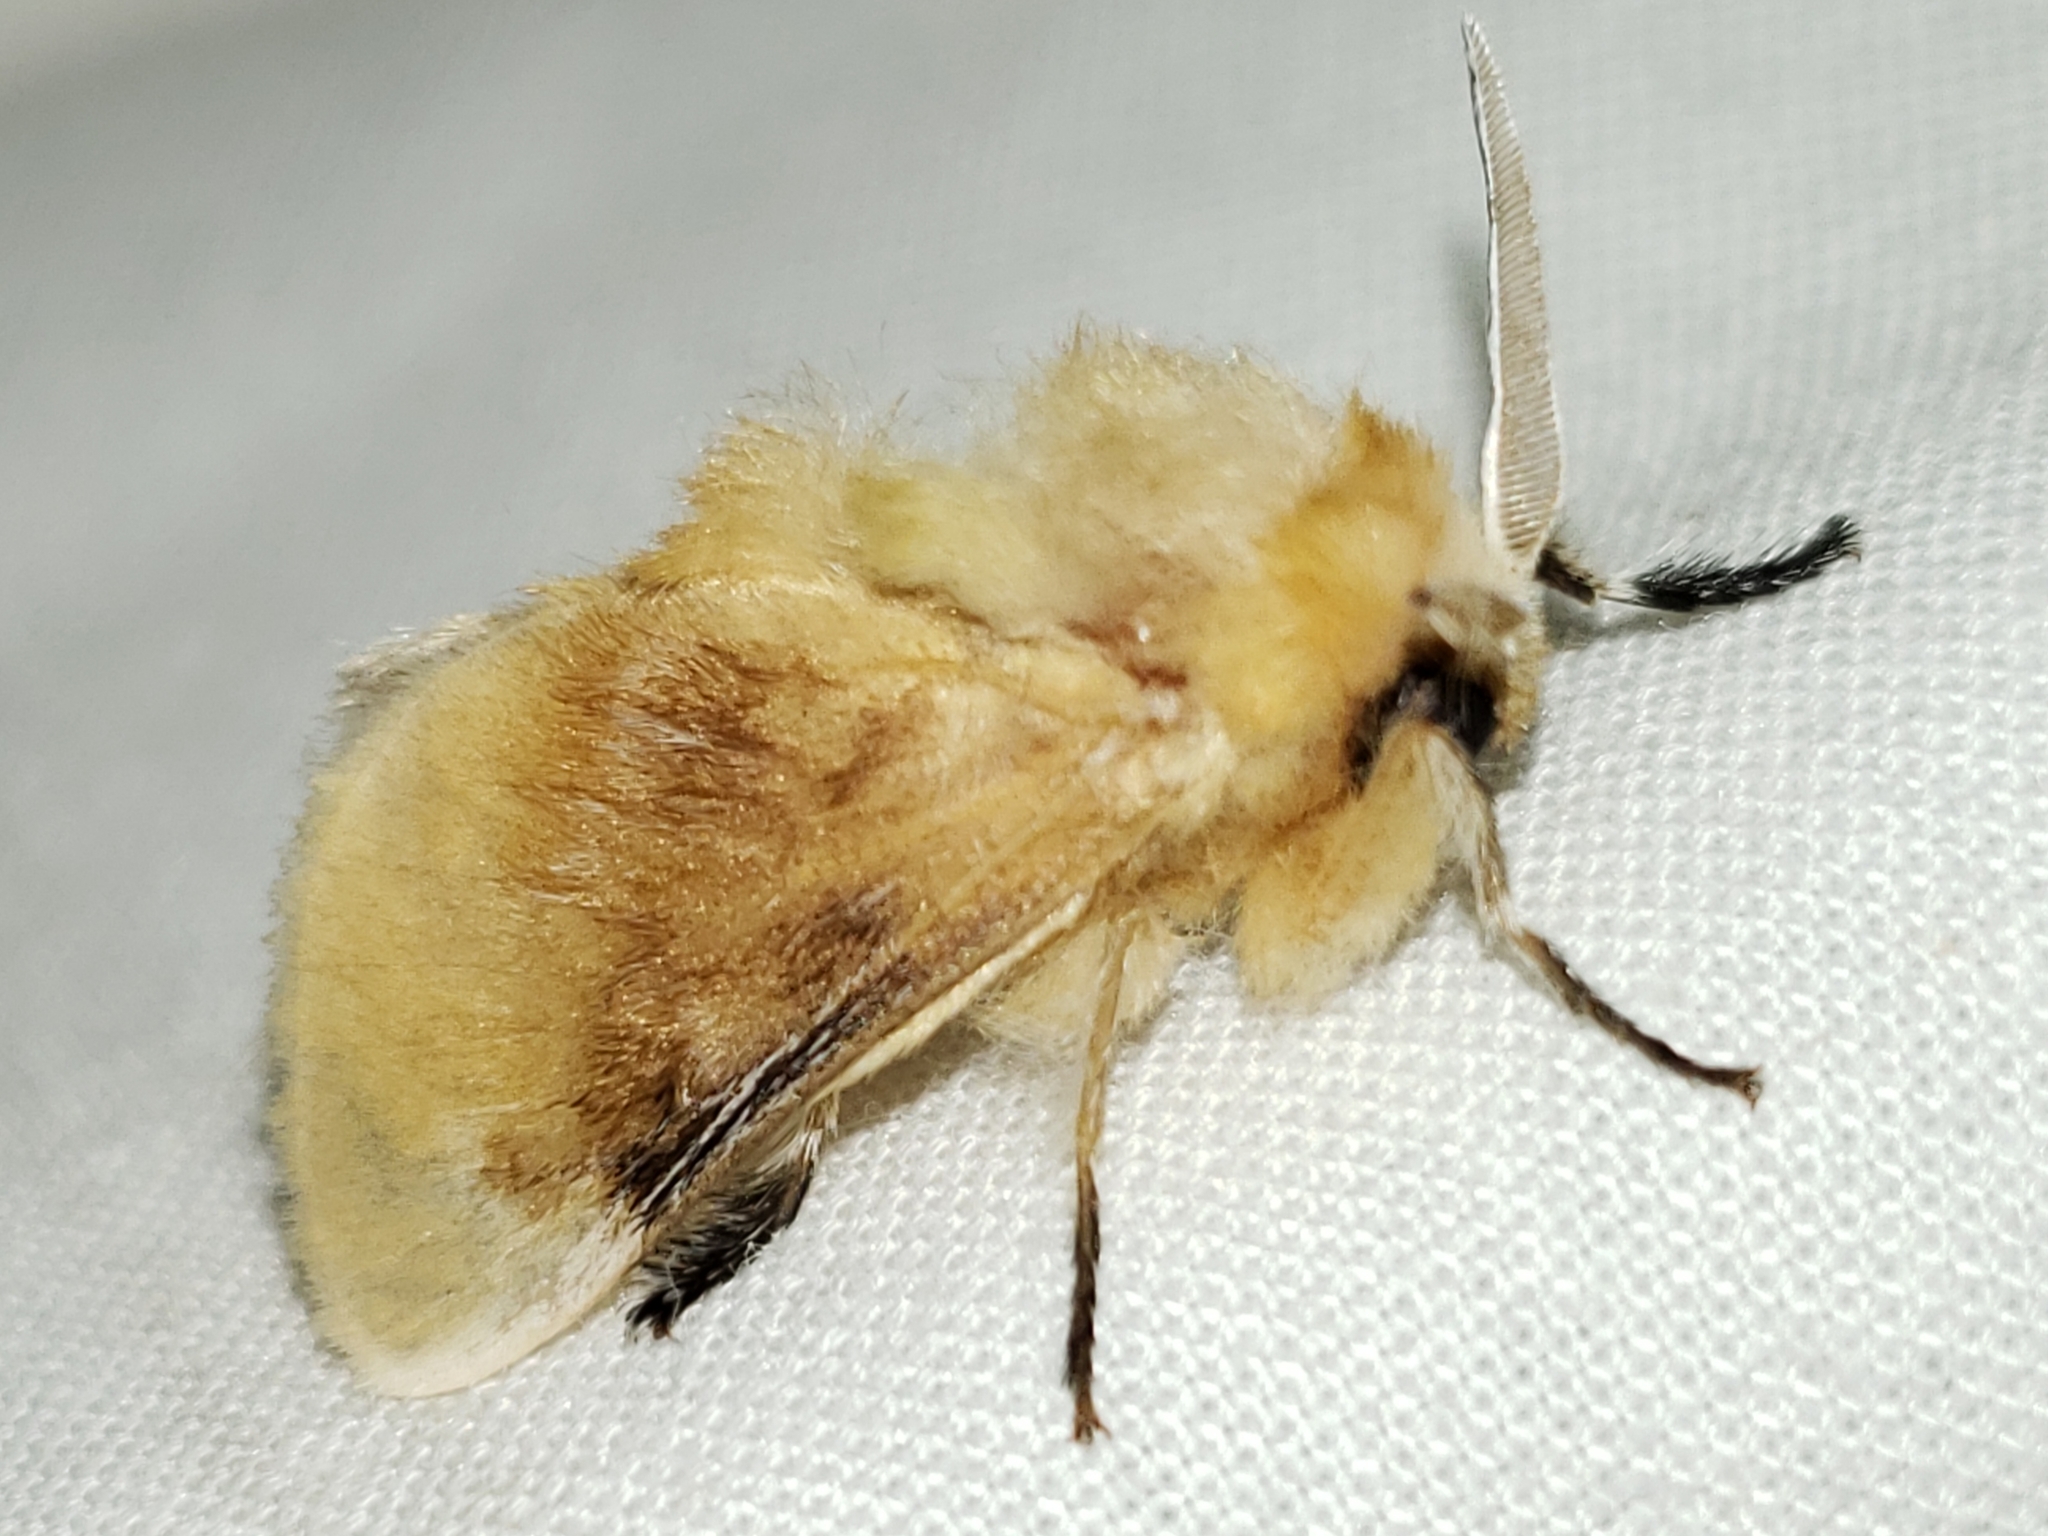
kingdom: Animalia
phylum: Arthropoda
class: Insecta
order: Lepidoptera
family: Megalopygidae
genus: Megalopyge
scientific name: Megalopyge opercularis
